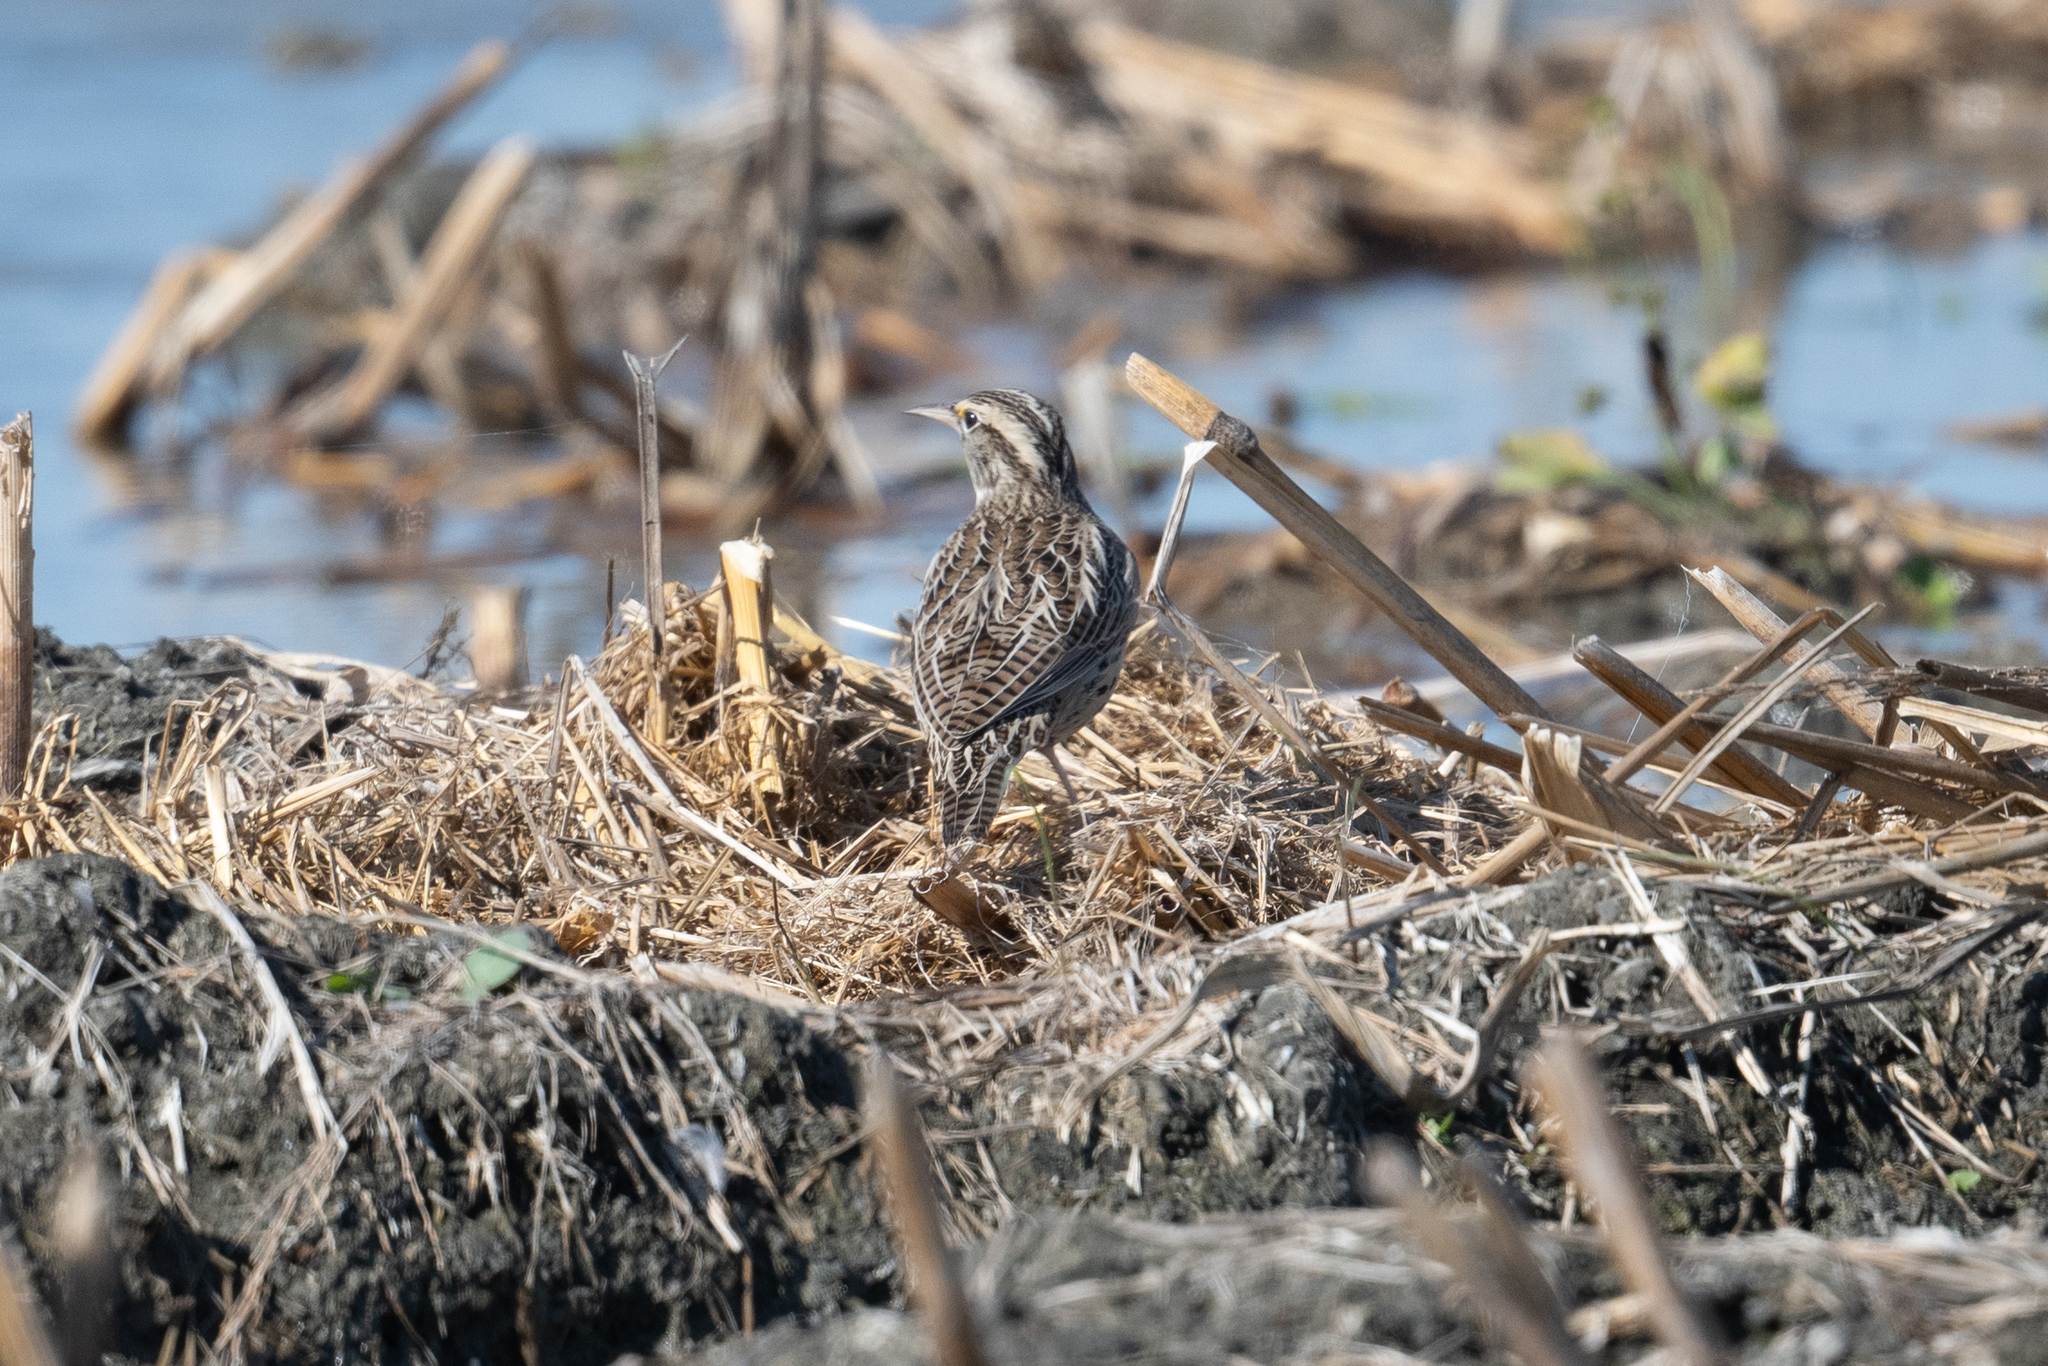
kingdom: Animalia
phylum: Chordata
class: Aves
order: Passeriformes
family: Icteridae
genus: Sturnella
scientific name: Sturnella neglecta
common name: Western meadowlark
